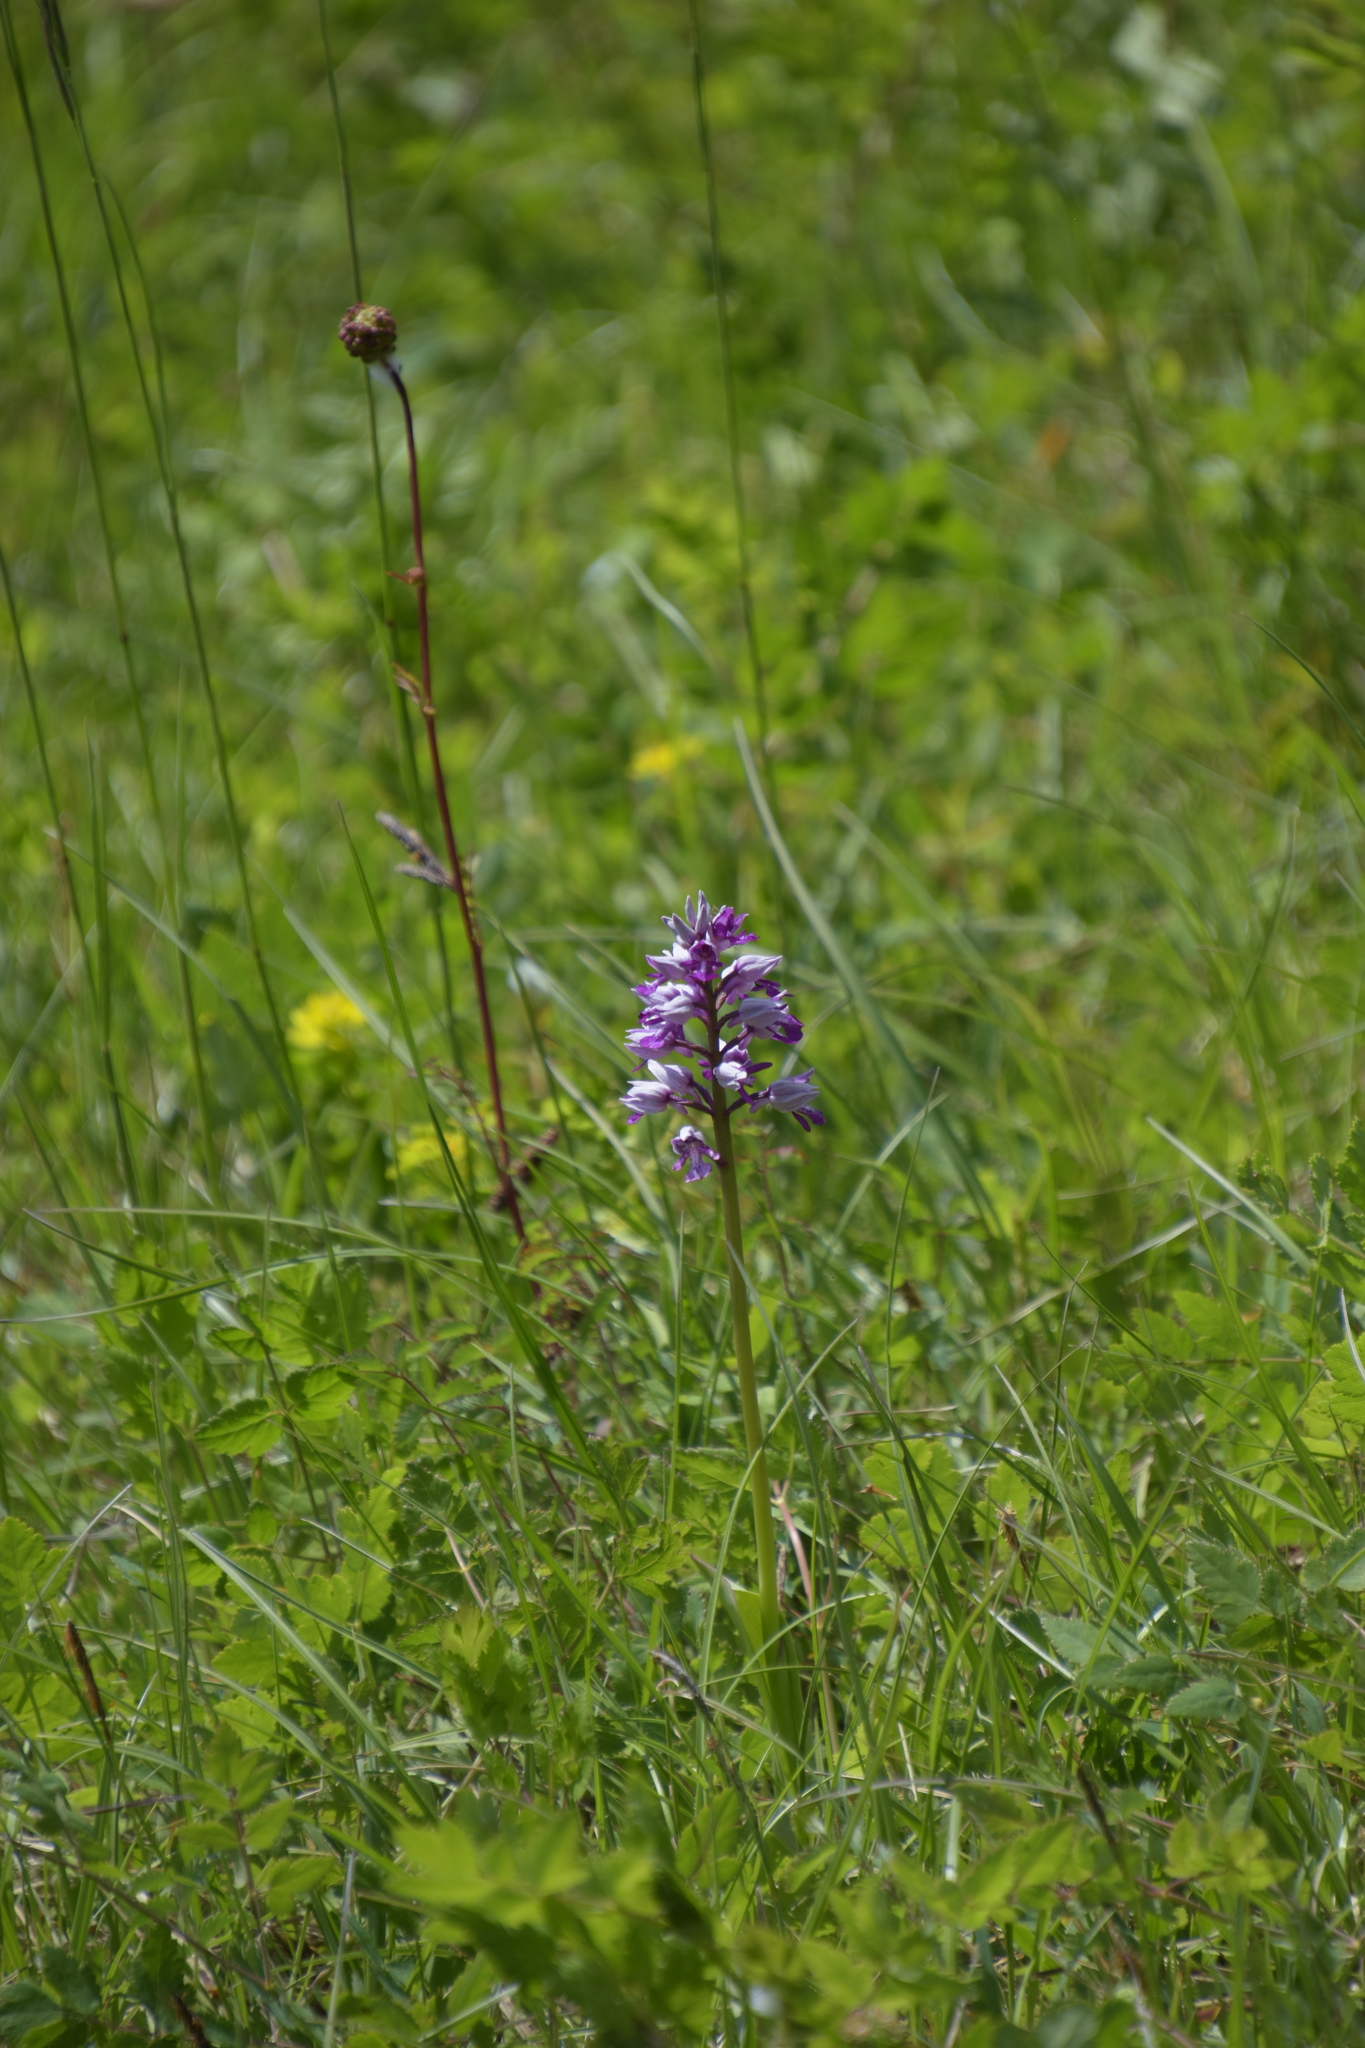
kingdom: Plantae
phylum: Tracheophyta
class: Liliopsida
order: Asparagales
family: Orchidaceae
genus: Orchis
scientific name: Orchis militaris
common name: Military orchid
